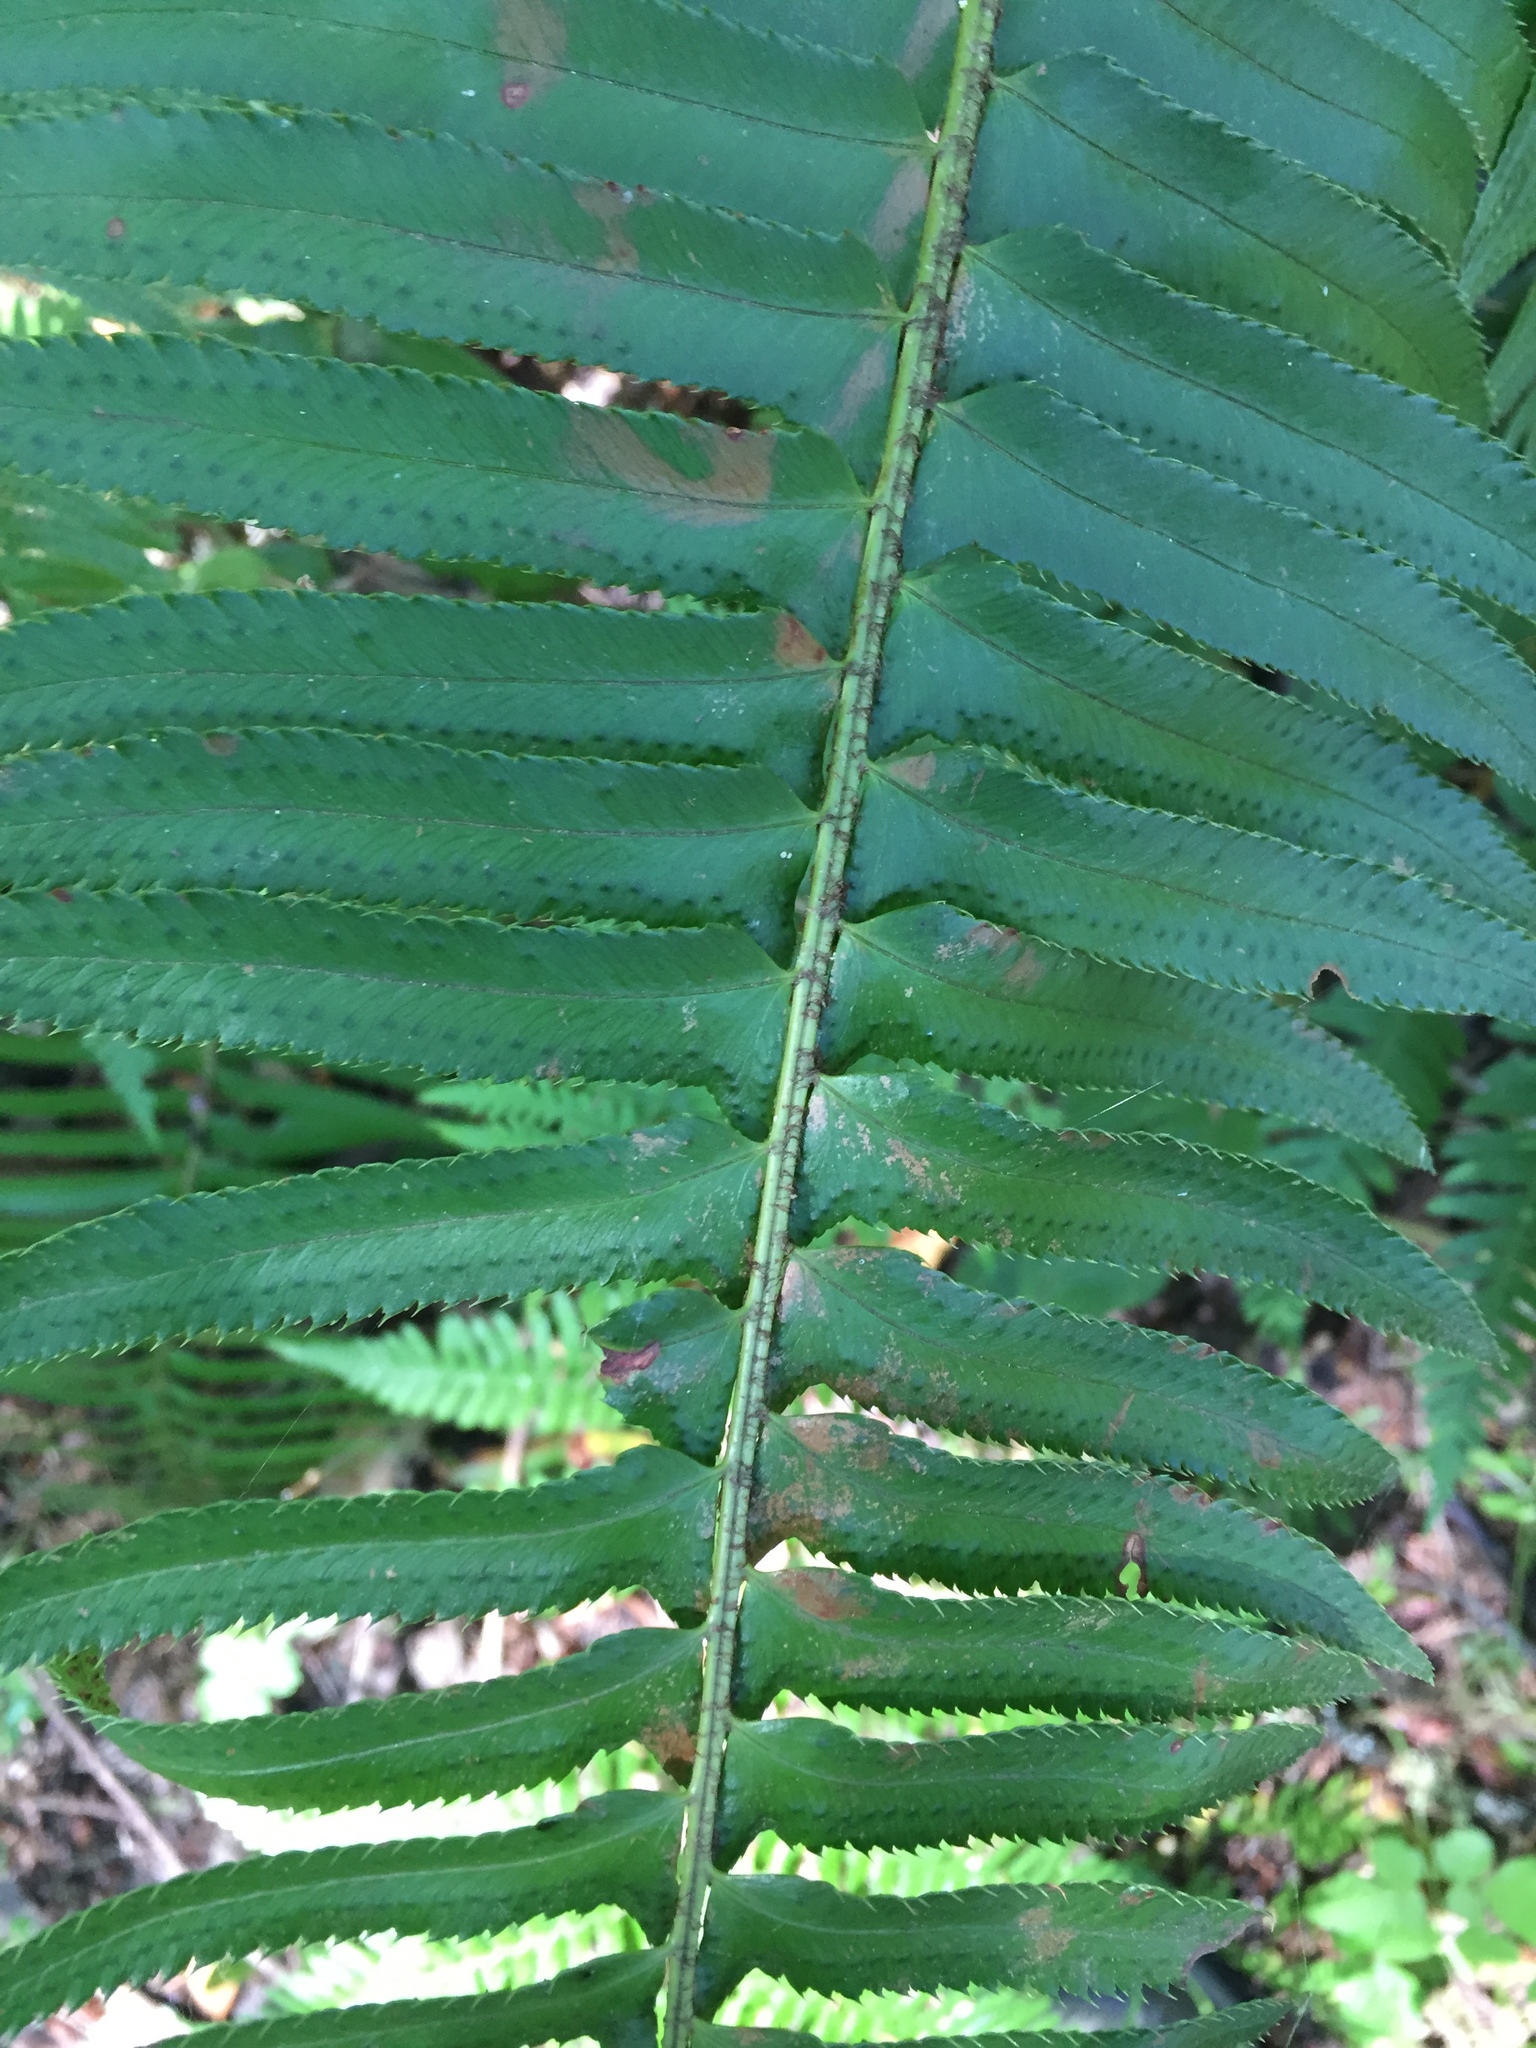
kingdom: Plantae
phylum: Tracheophyta
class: Polypodiopsida
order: Polypodiales
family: Dryopteridaceae
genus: Polystichum
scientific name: Polystichum munitum
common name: Western sword-fern
